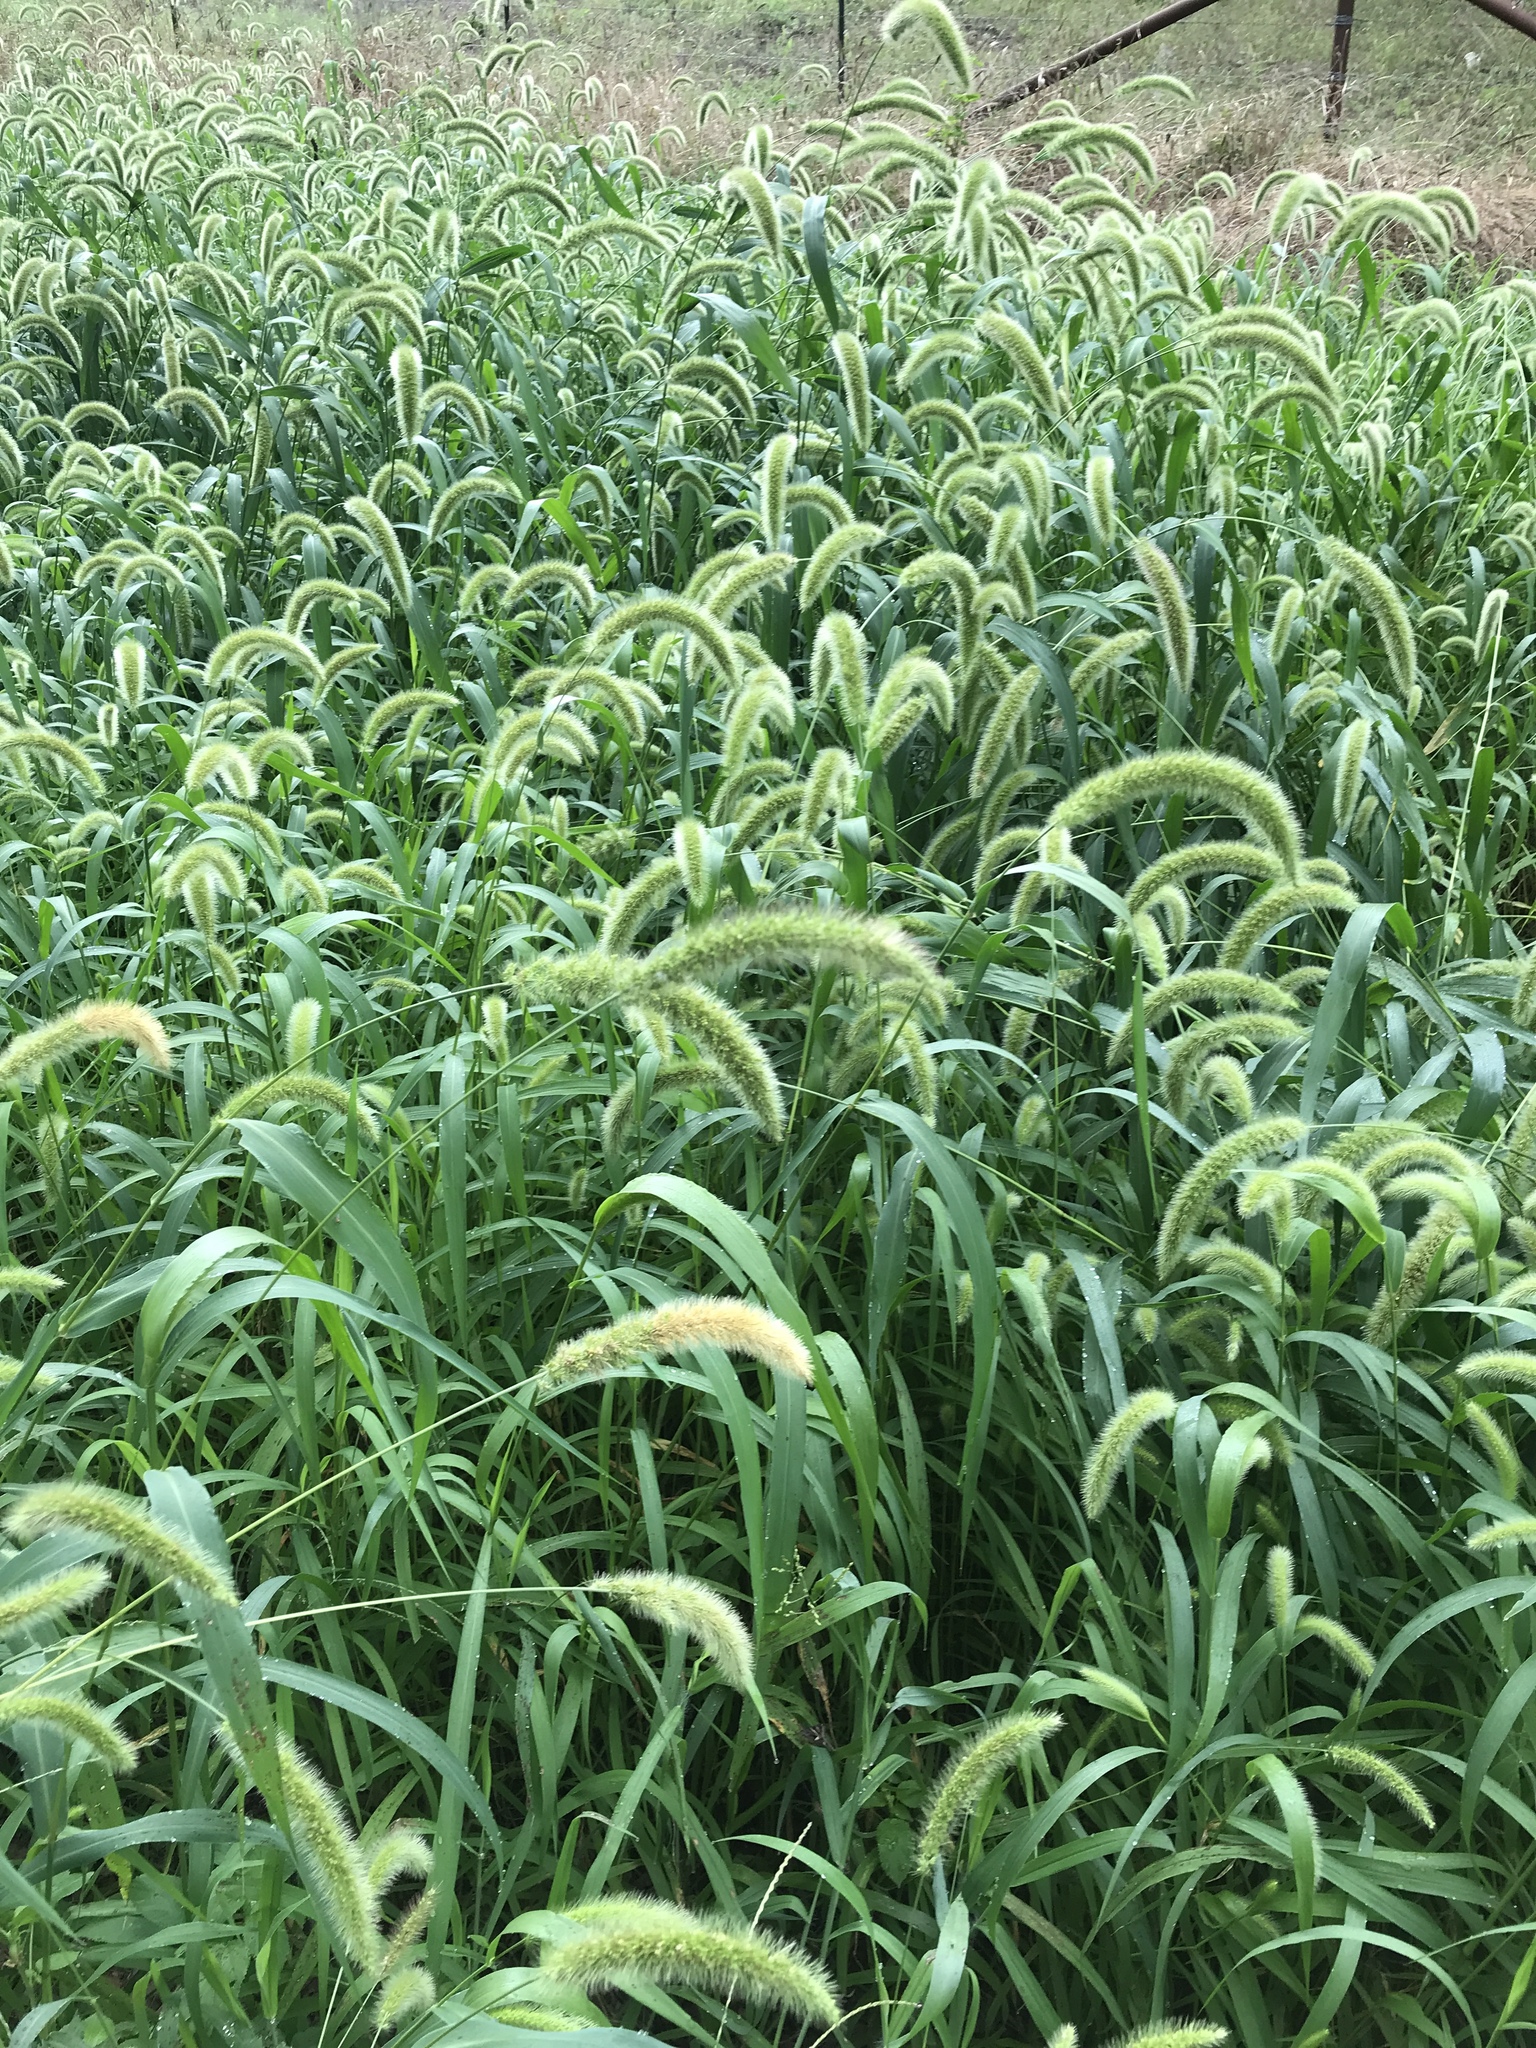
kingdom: Plantae
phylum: Tracheophyta
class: Liliopsida
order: Poales
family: Poaceae
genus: Setaria
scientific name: Setaria italica
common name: Foxtail bristle-grass
